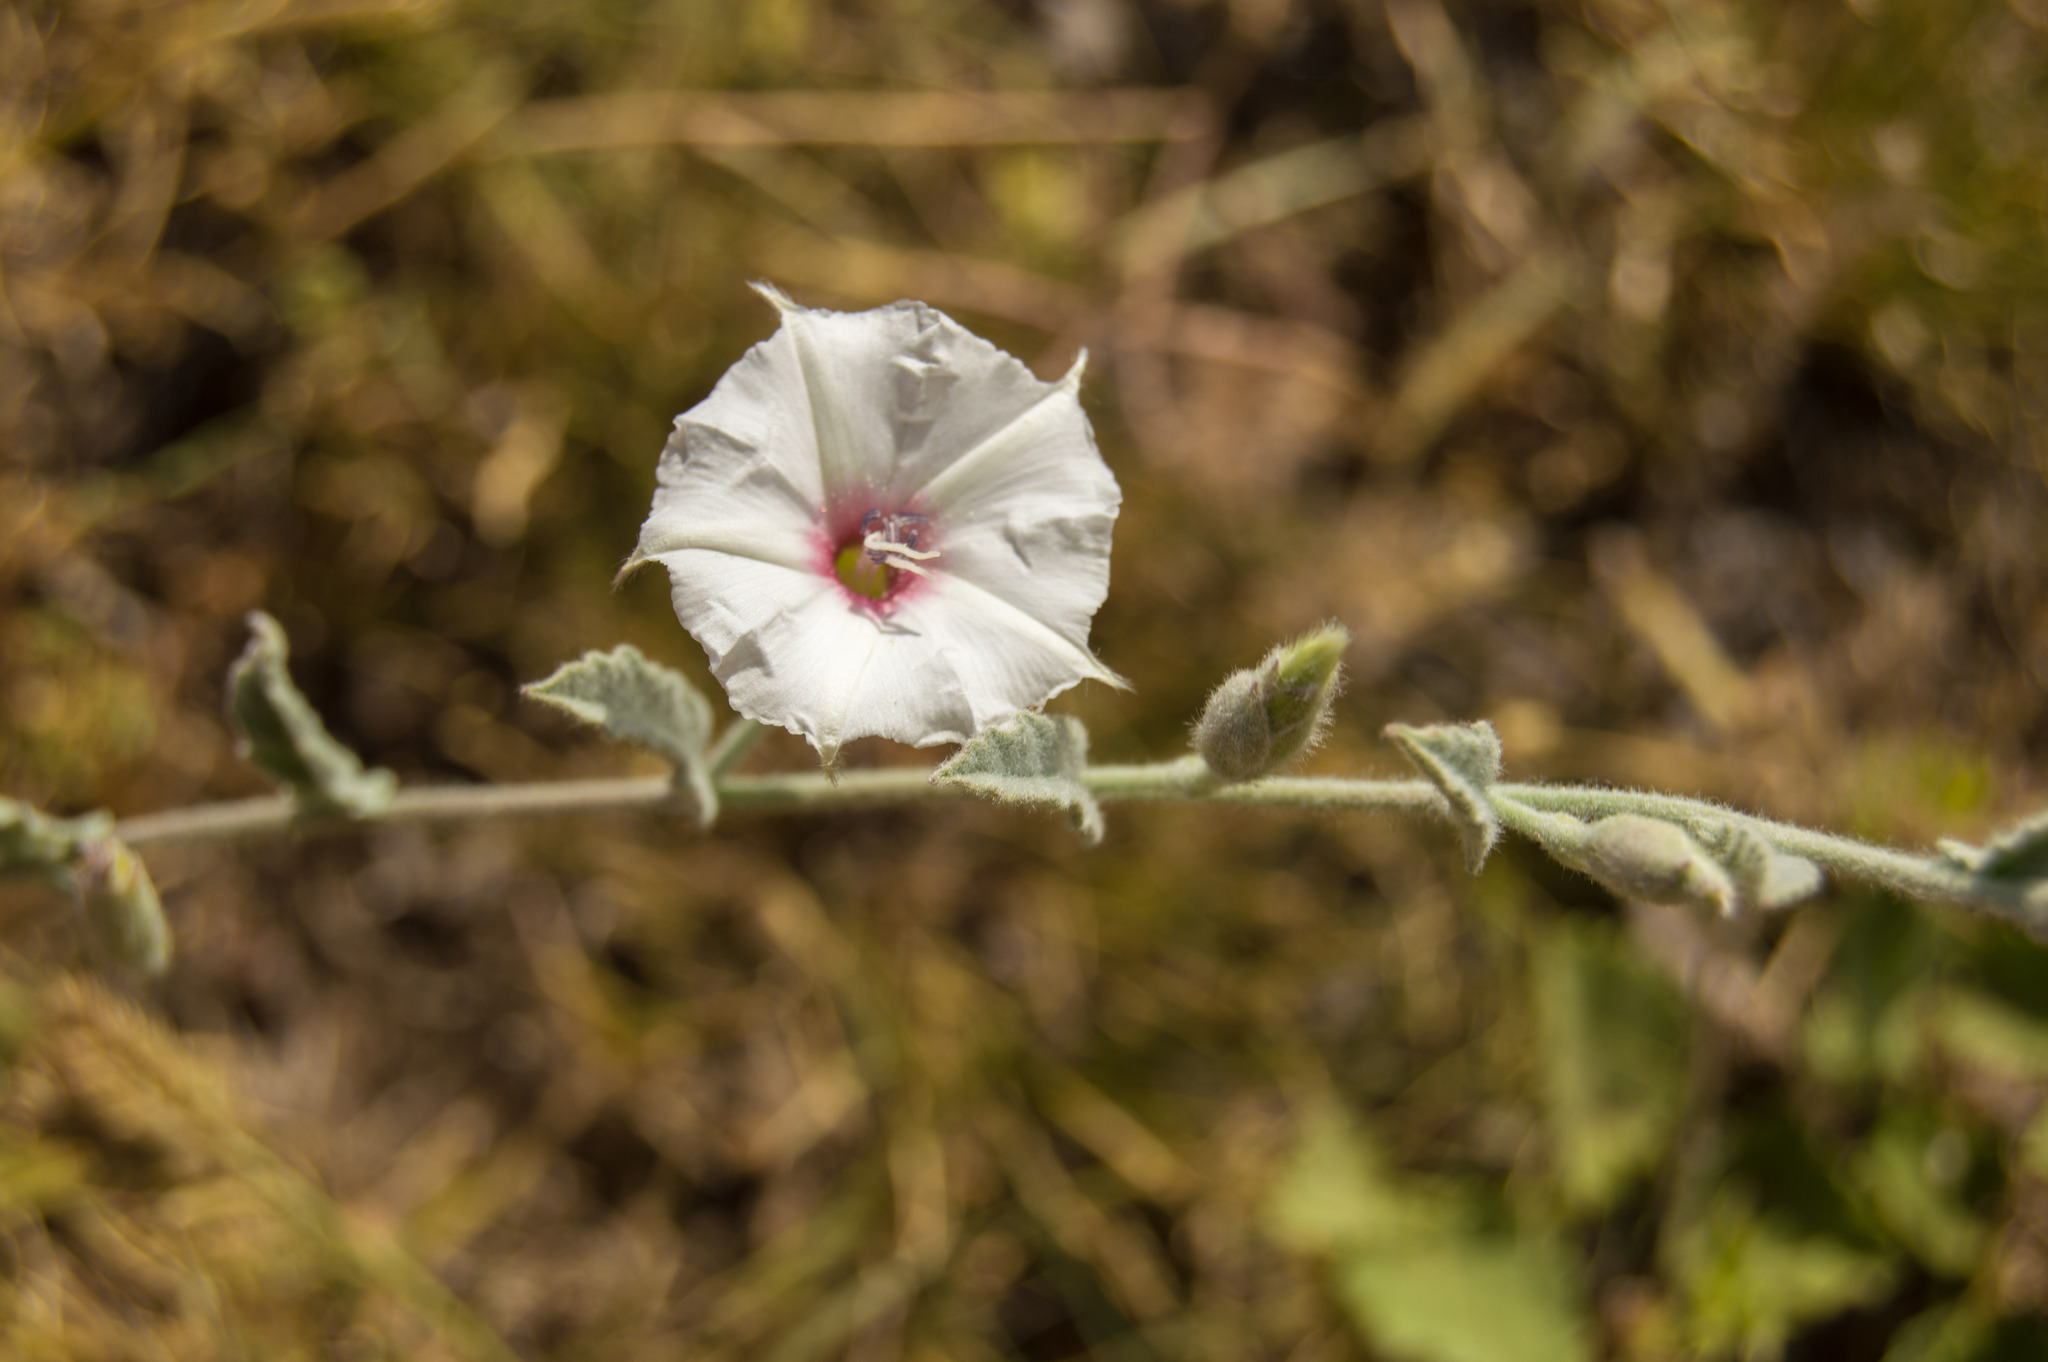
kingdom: Plantae
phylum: Tracheophyta
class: Magnoliopsida
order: Solanales
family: Convolvulaceae
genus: Convolvulus
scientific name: Convolvulus hermanniae
